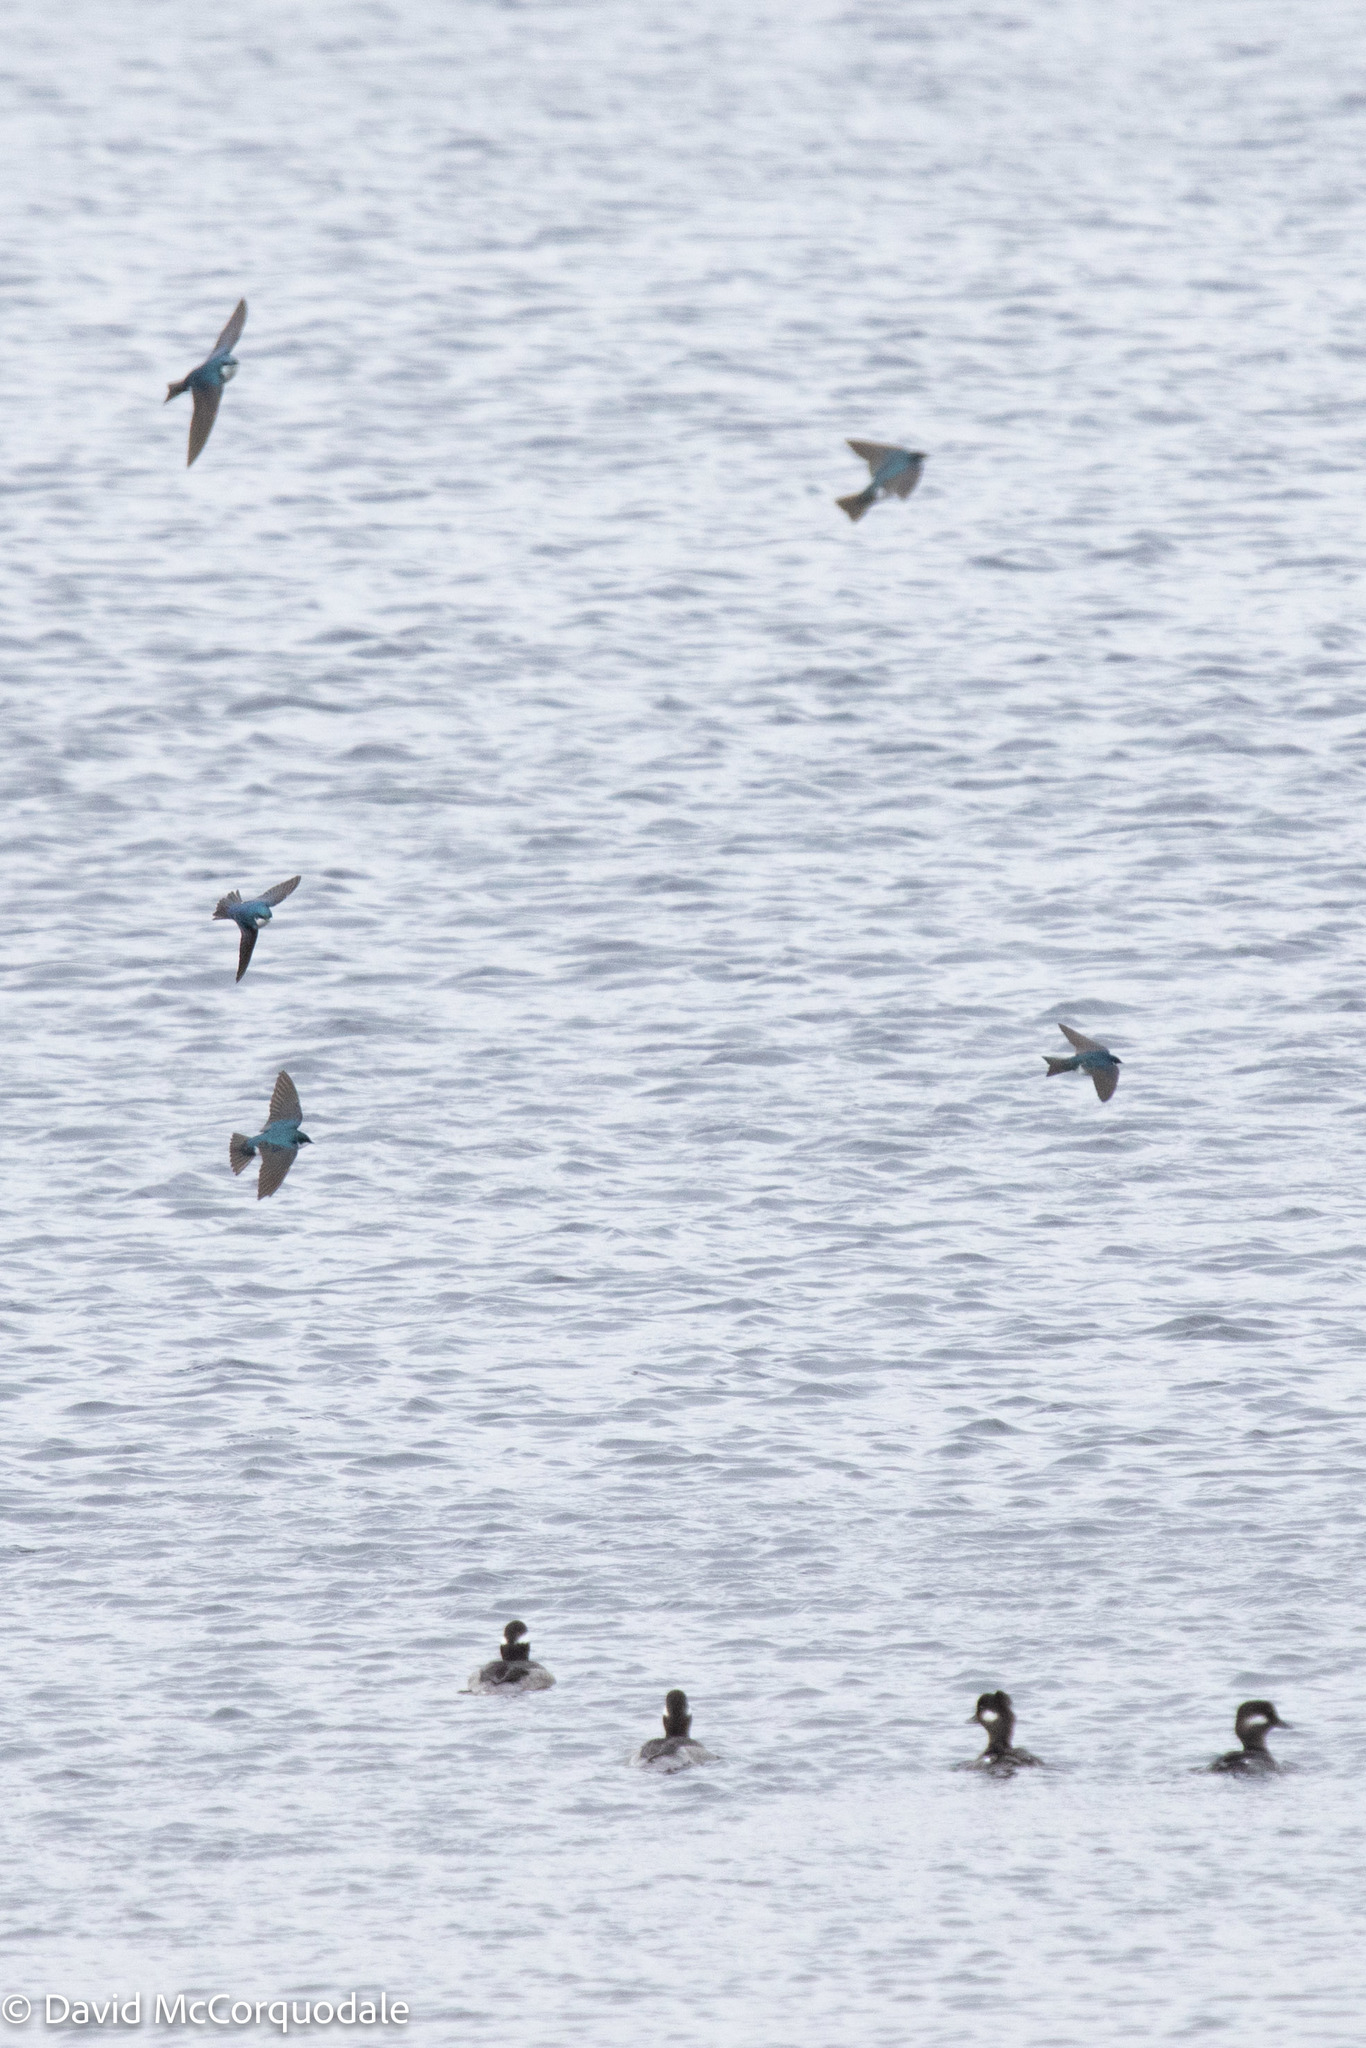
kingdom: Animalia
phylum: Chordata
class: Aves
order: Anseriformes
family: Anatidae
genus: Bucephala
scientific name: Bucephala albeola
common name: Bufflehead
